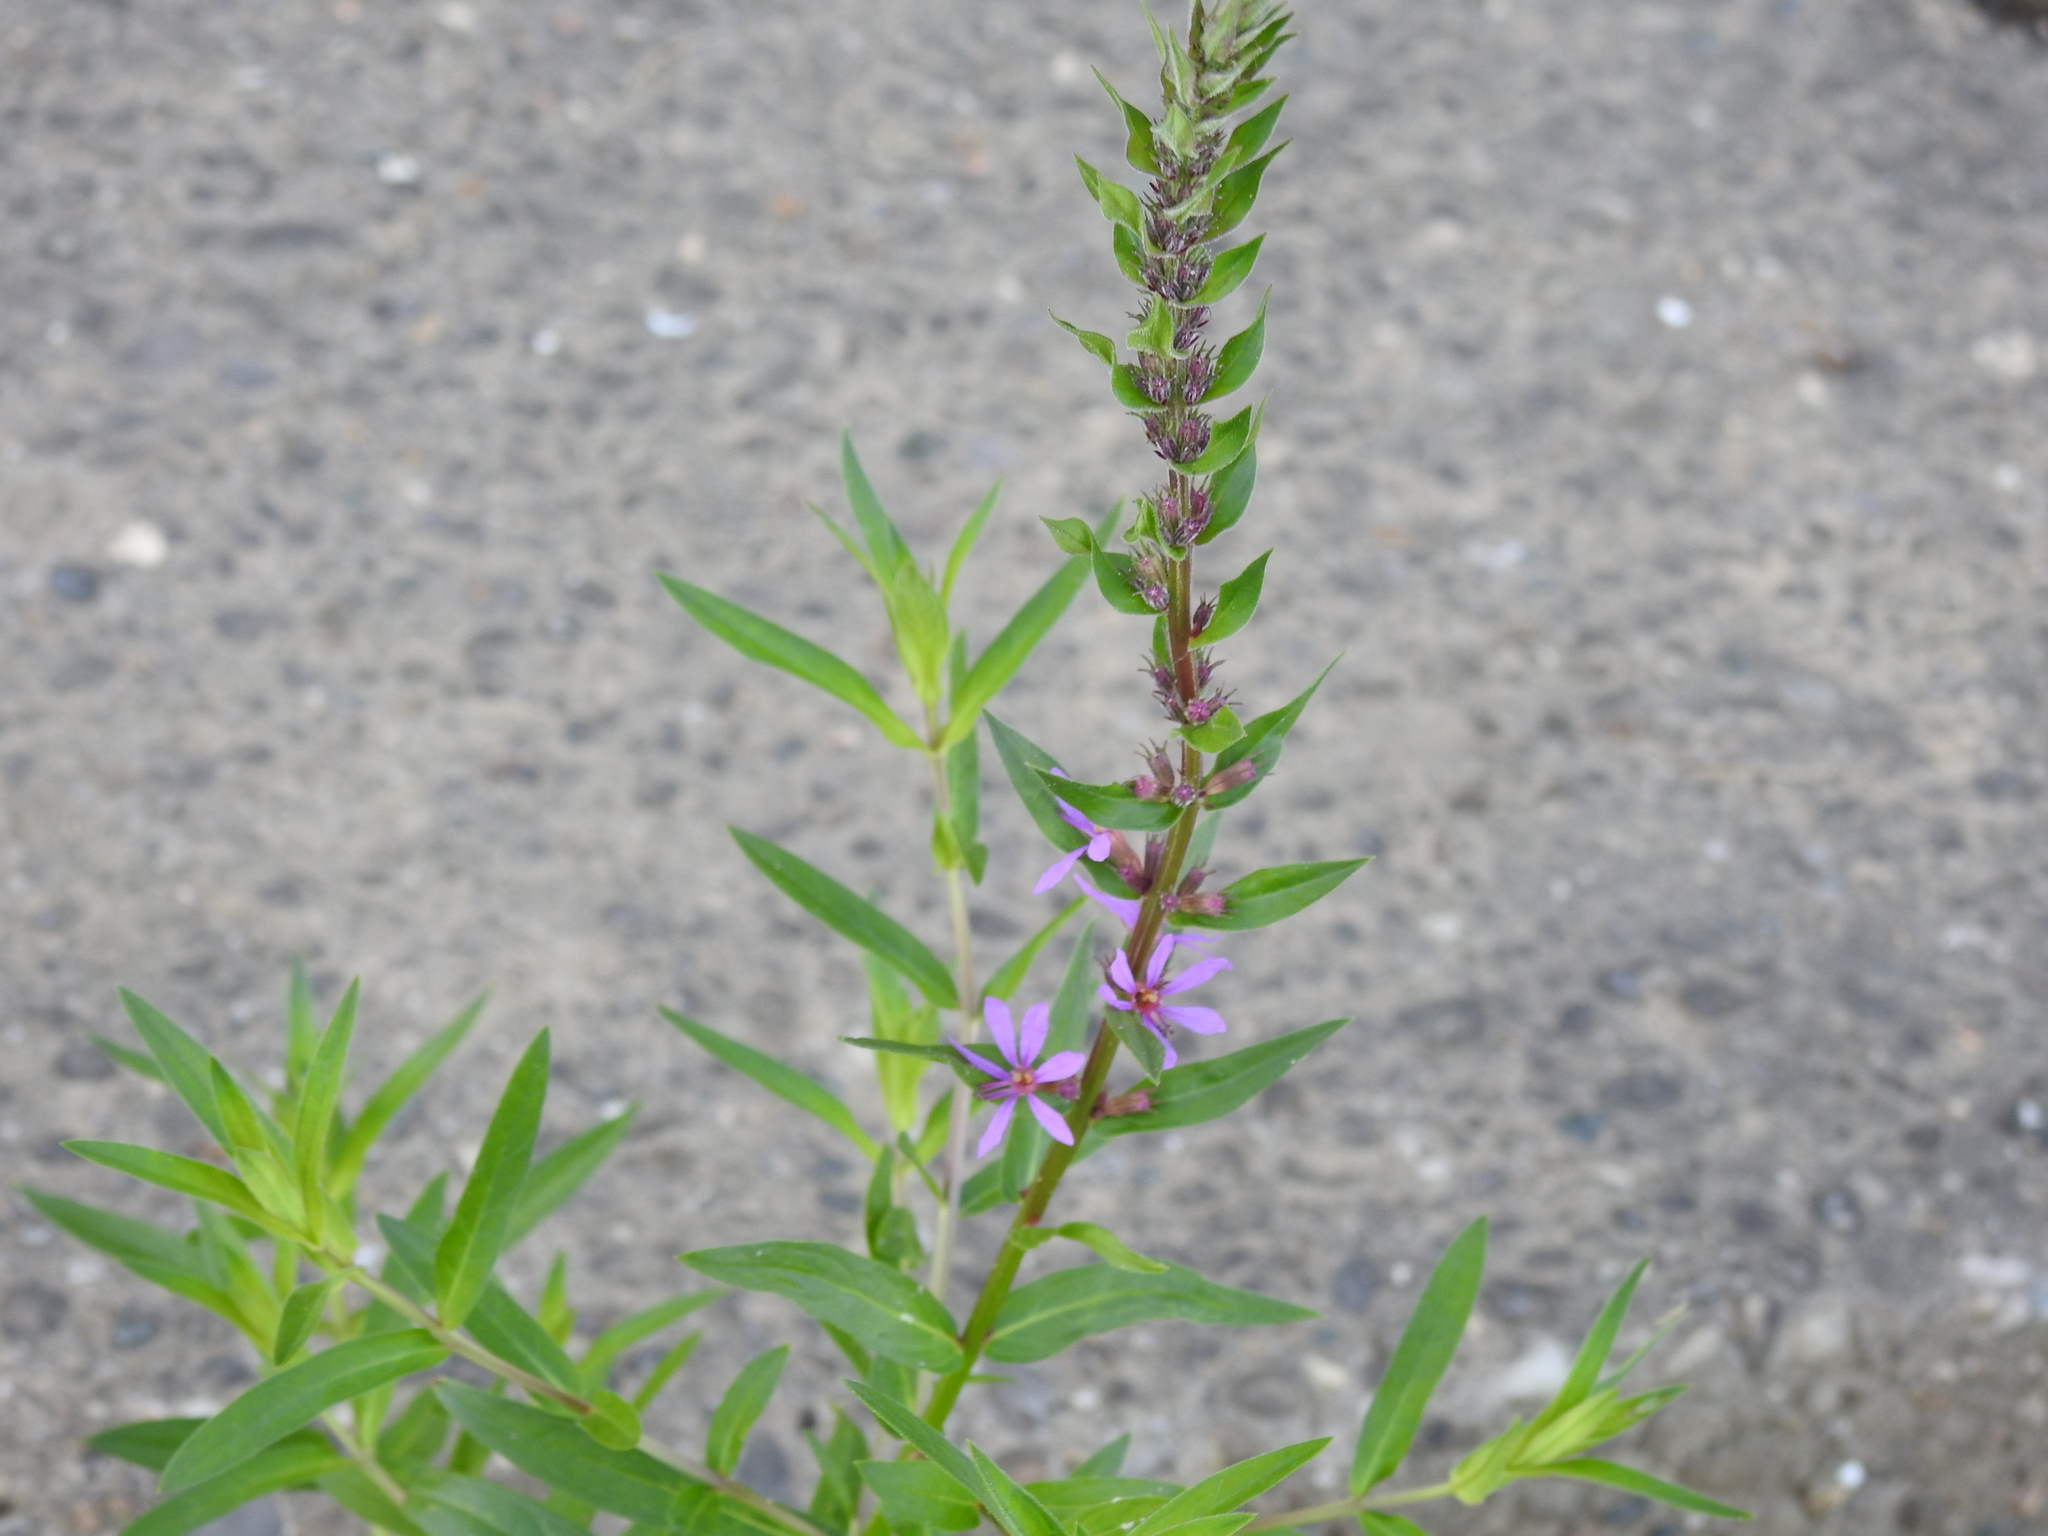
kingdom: Plantae
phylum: Tracheophyta
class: Magnoliopsida
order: Myrtales
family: Lythraceae
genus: Lythrum
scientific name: Lythrum salicaria
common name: Purple loosestrife
